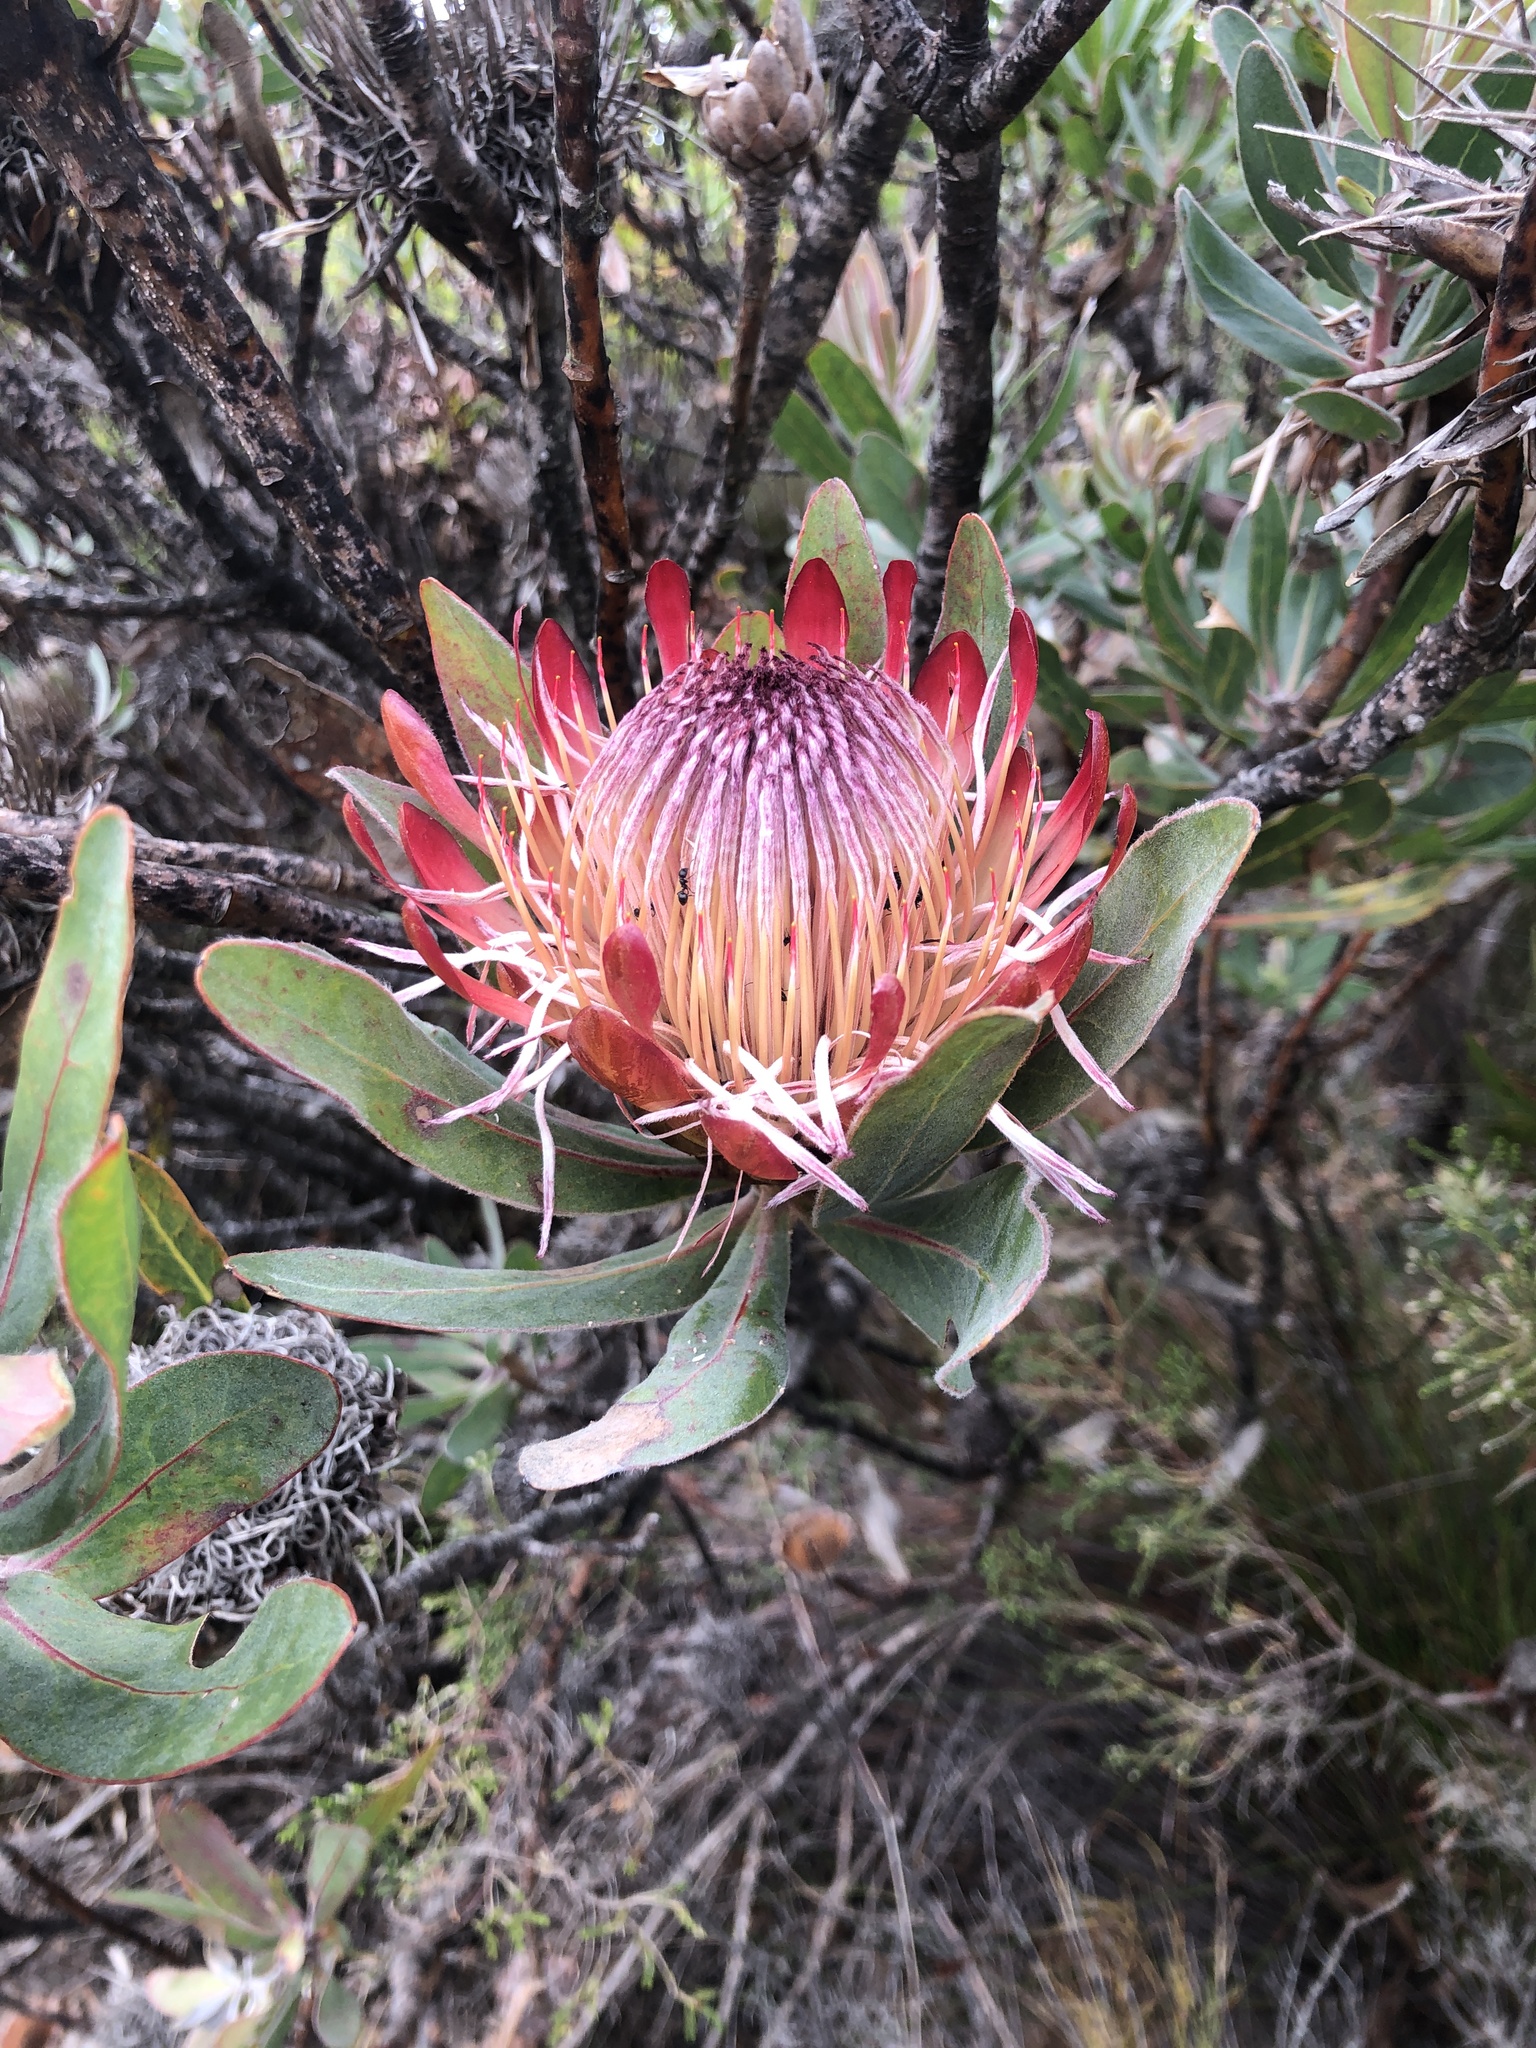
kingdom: Plantae
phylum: Tracheophyta
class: Magnoliopsida
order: Proteales
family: Proteaceae
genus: Protea
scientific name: Protea susannae
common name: Foetid-leaf sugarbush
